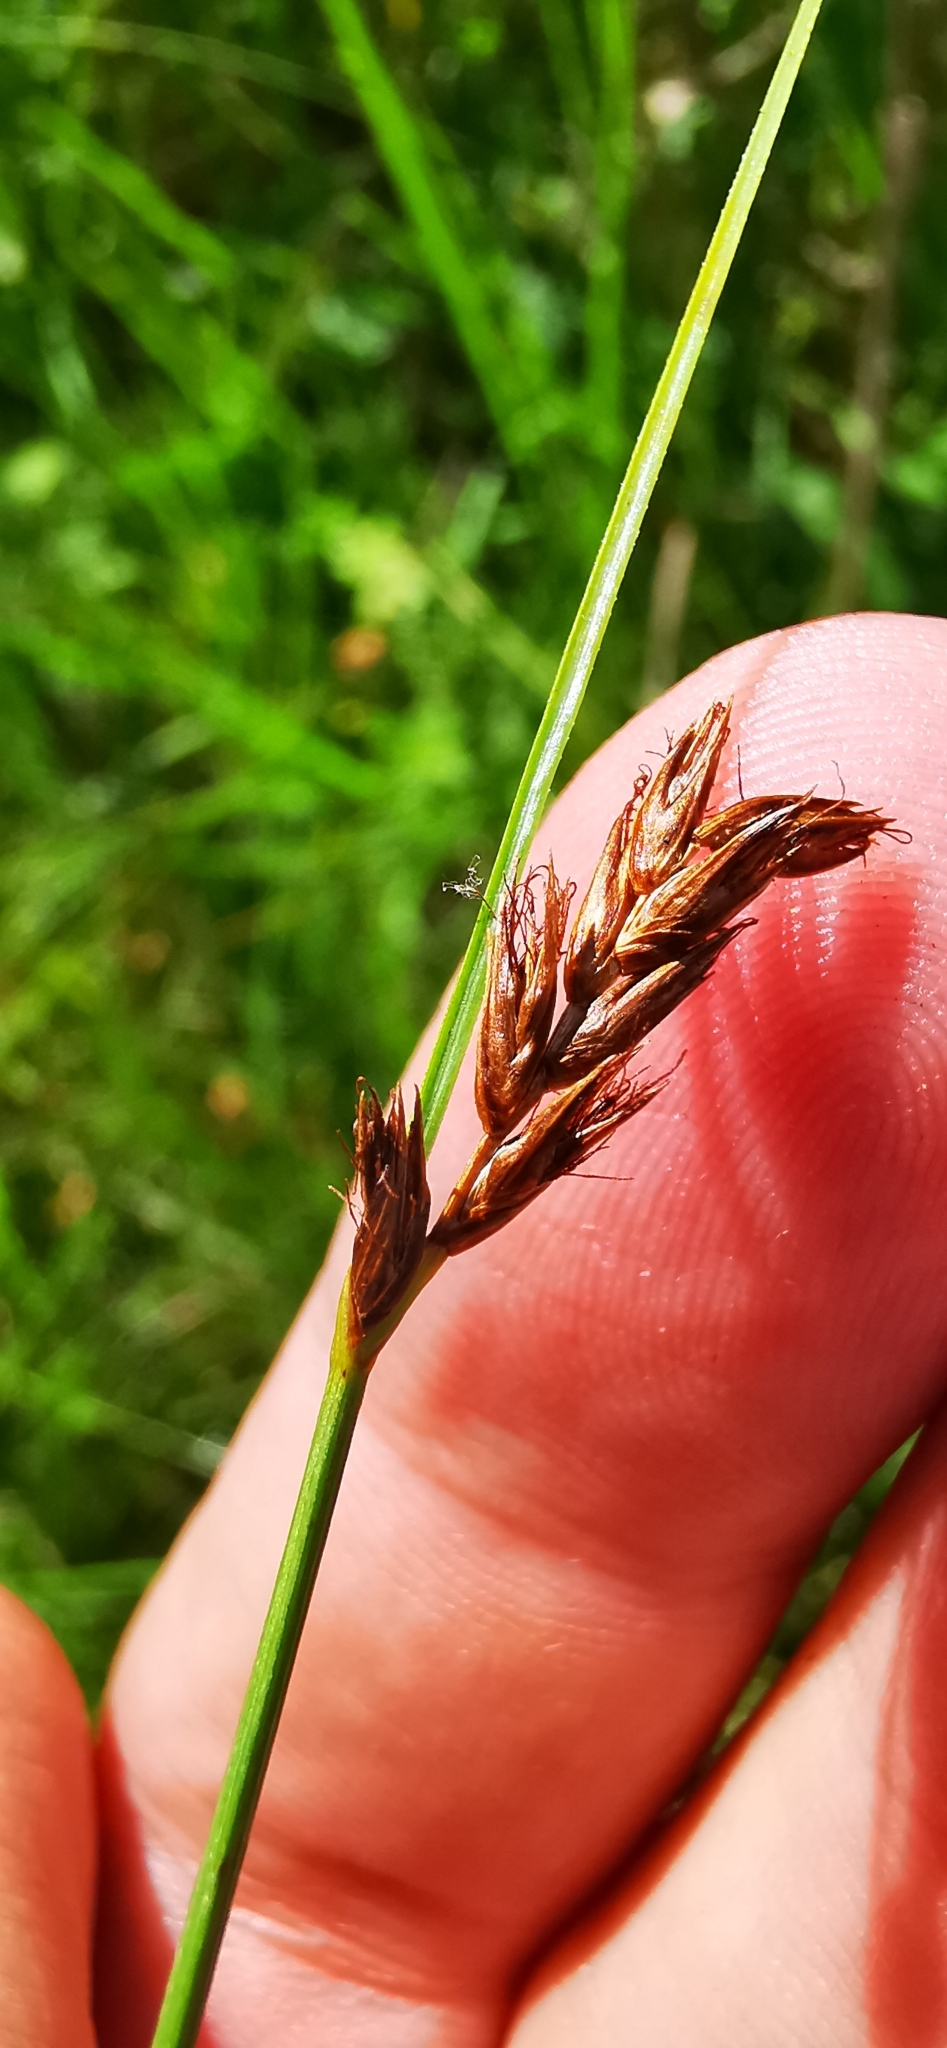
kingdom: Plantae
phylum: Tracheophyta
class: Liliopsida
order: Poales
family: Cyperaceae
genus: Blysmus
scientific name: Blysmus compressus
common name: Flat-sedge
